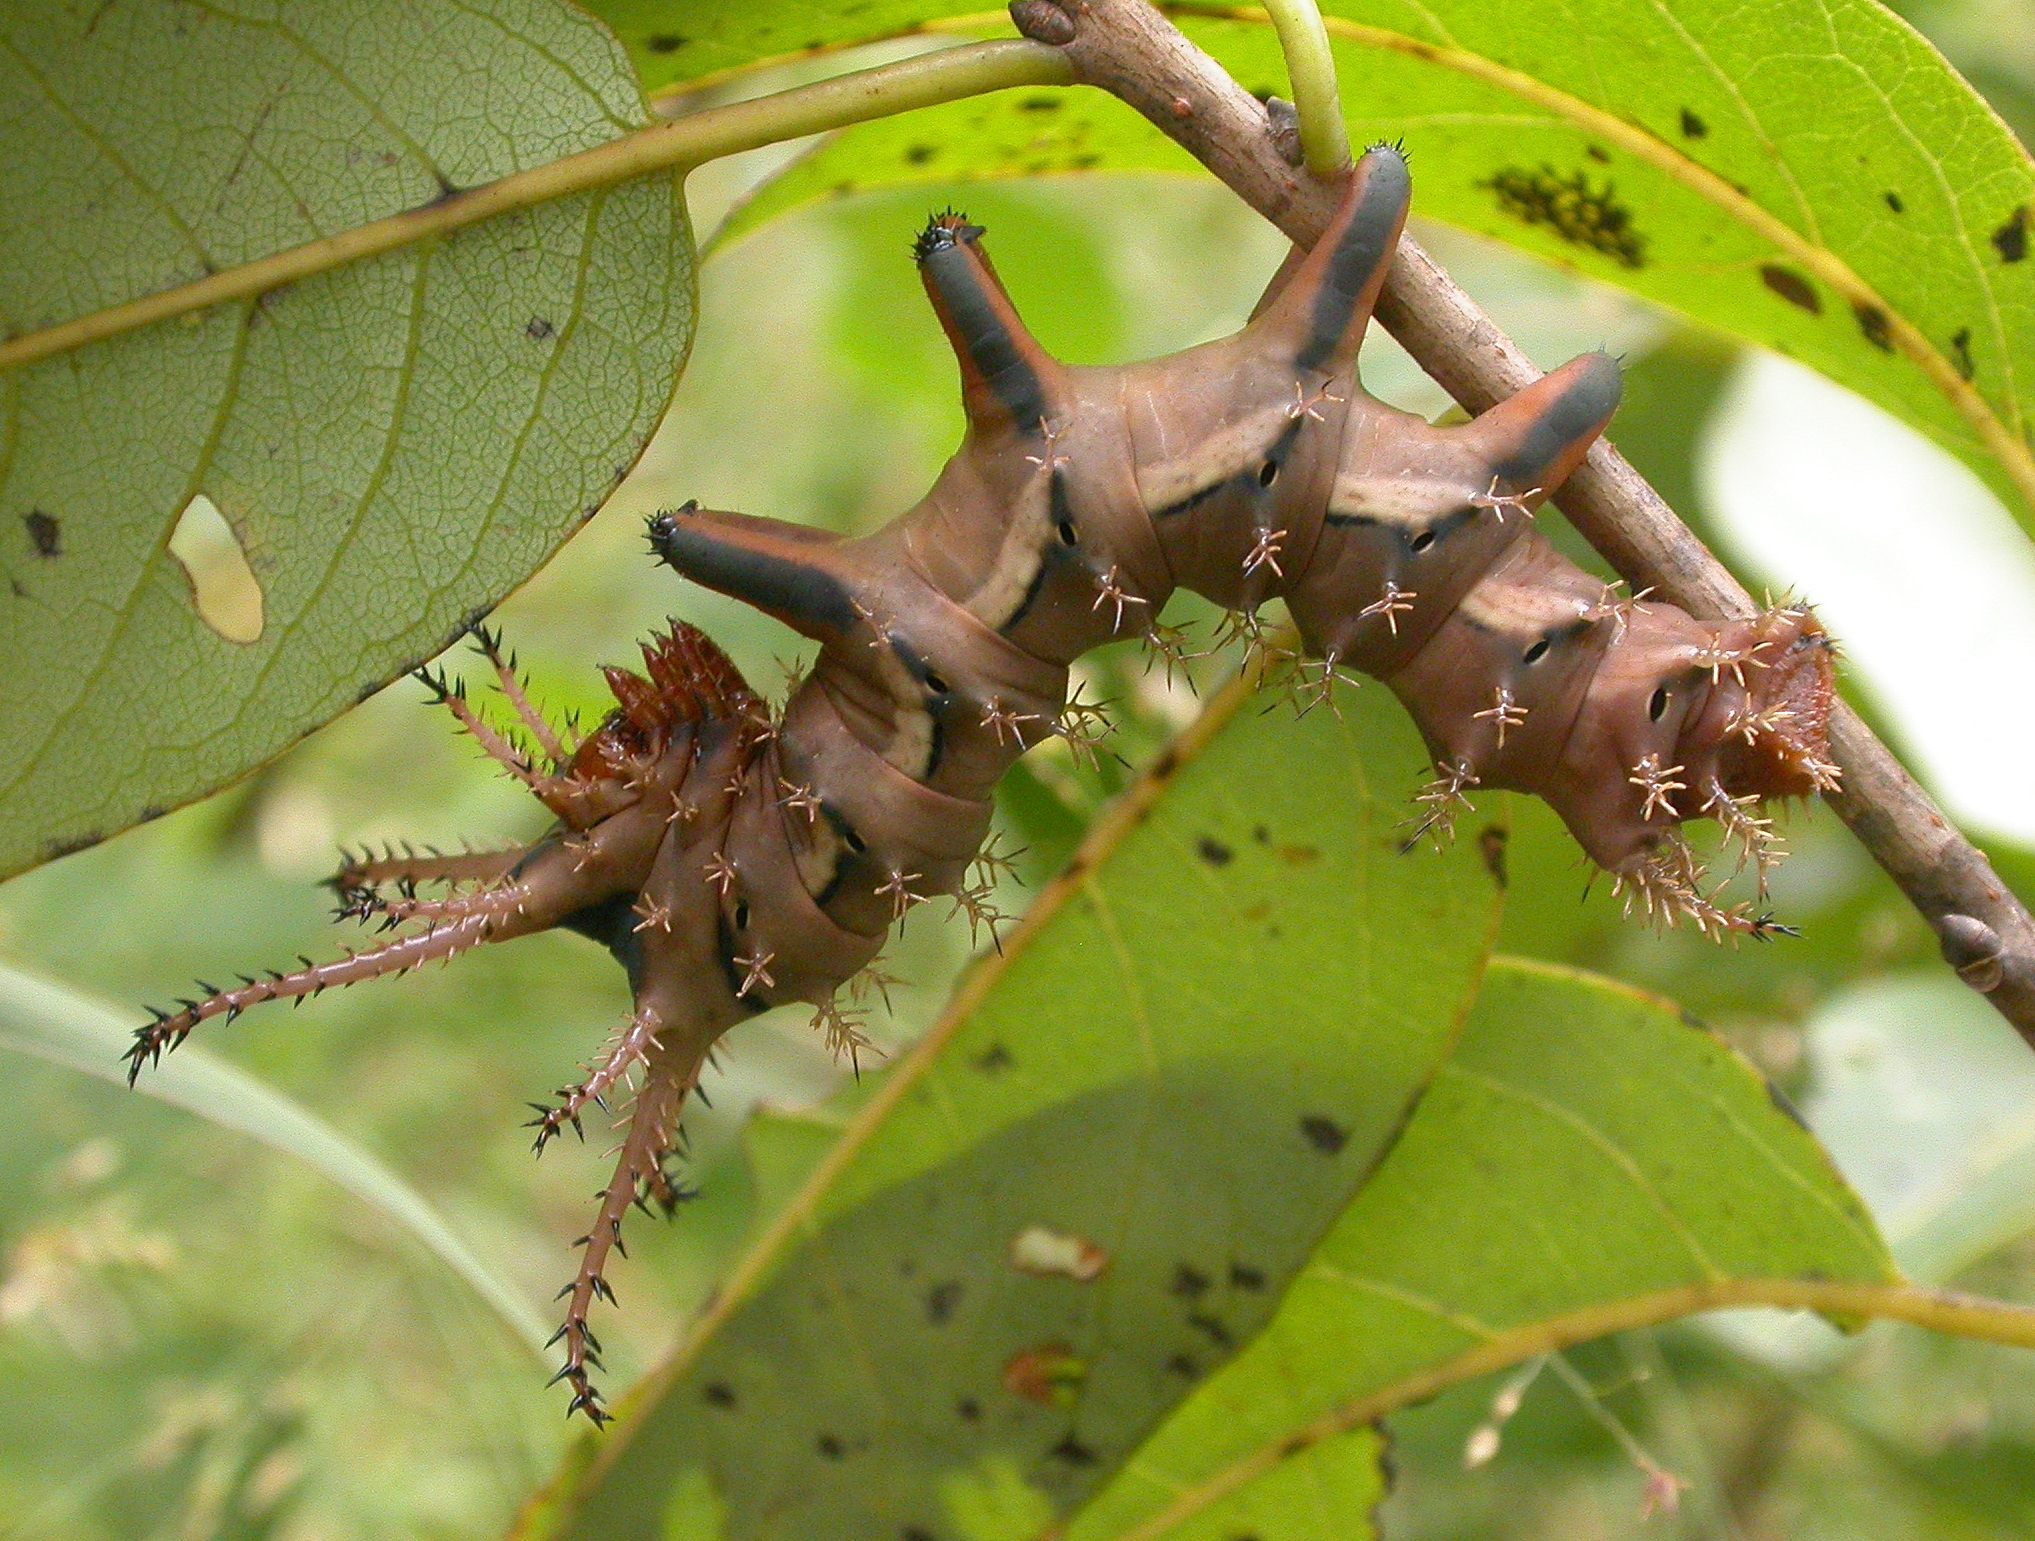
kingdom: Animalia
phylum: Arthropoda
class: Insecta
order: Lepidoptera
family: Saturniidae
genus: Citheronia
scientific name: Citheronia regalis
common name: Hickory horned devil
